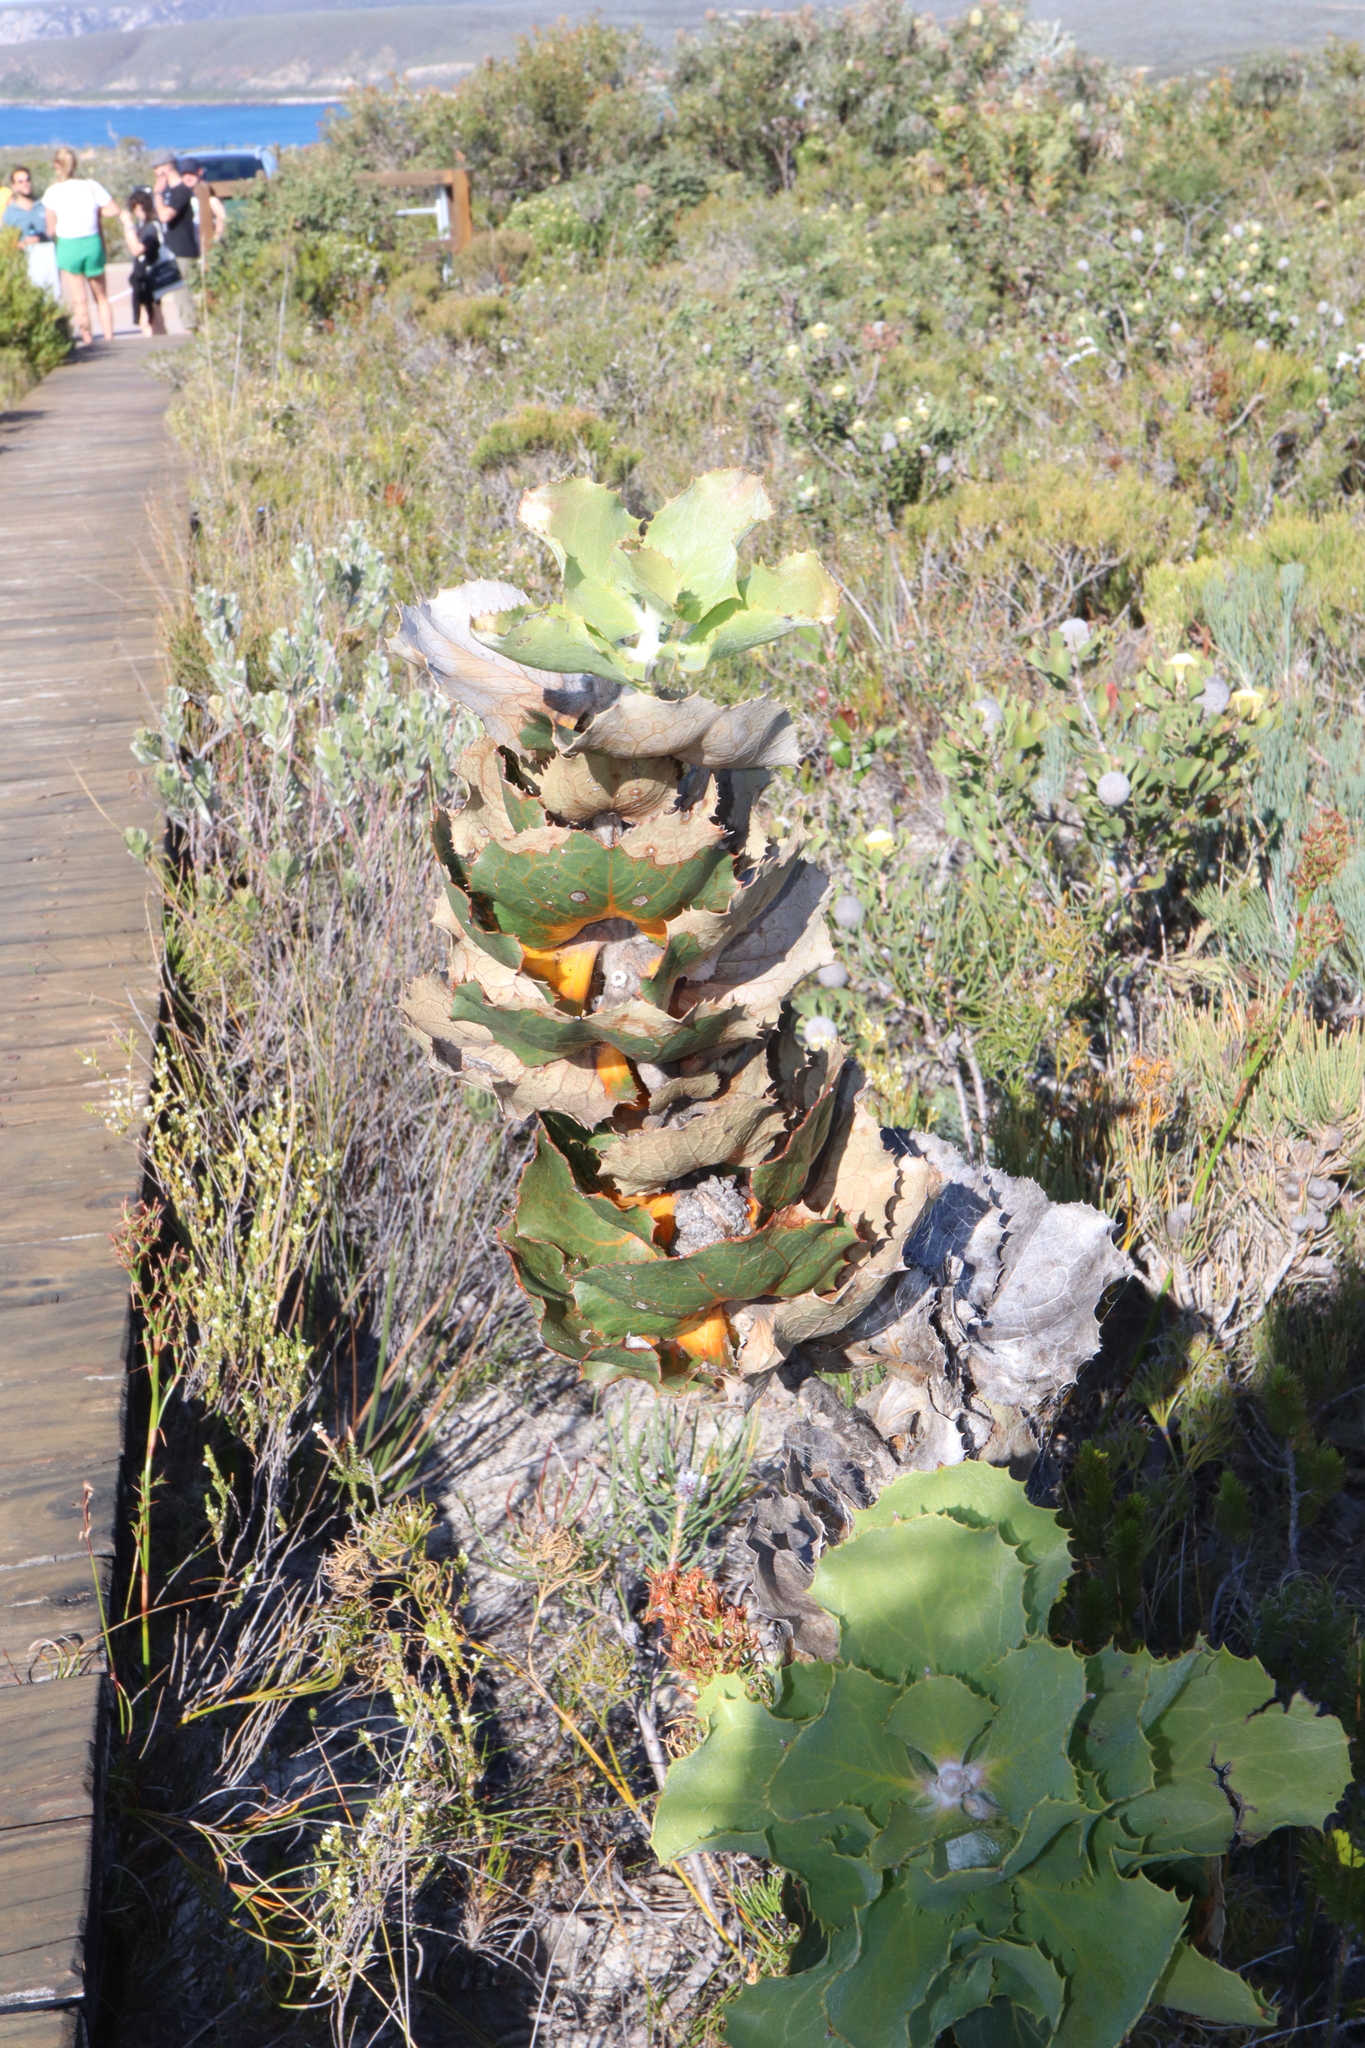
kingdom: Plantae
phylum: Tracheophyta
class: Magnoliopsida
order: Proteales
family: Proteaceae
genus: Hakea
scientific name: Hakea victoria
